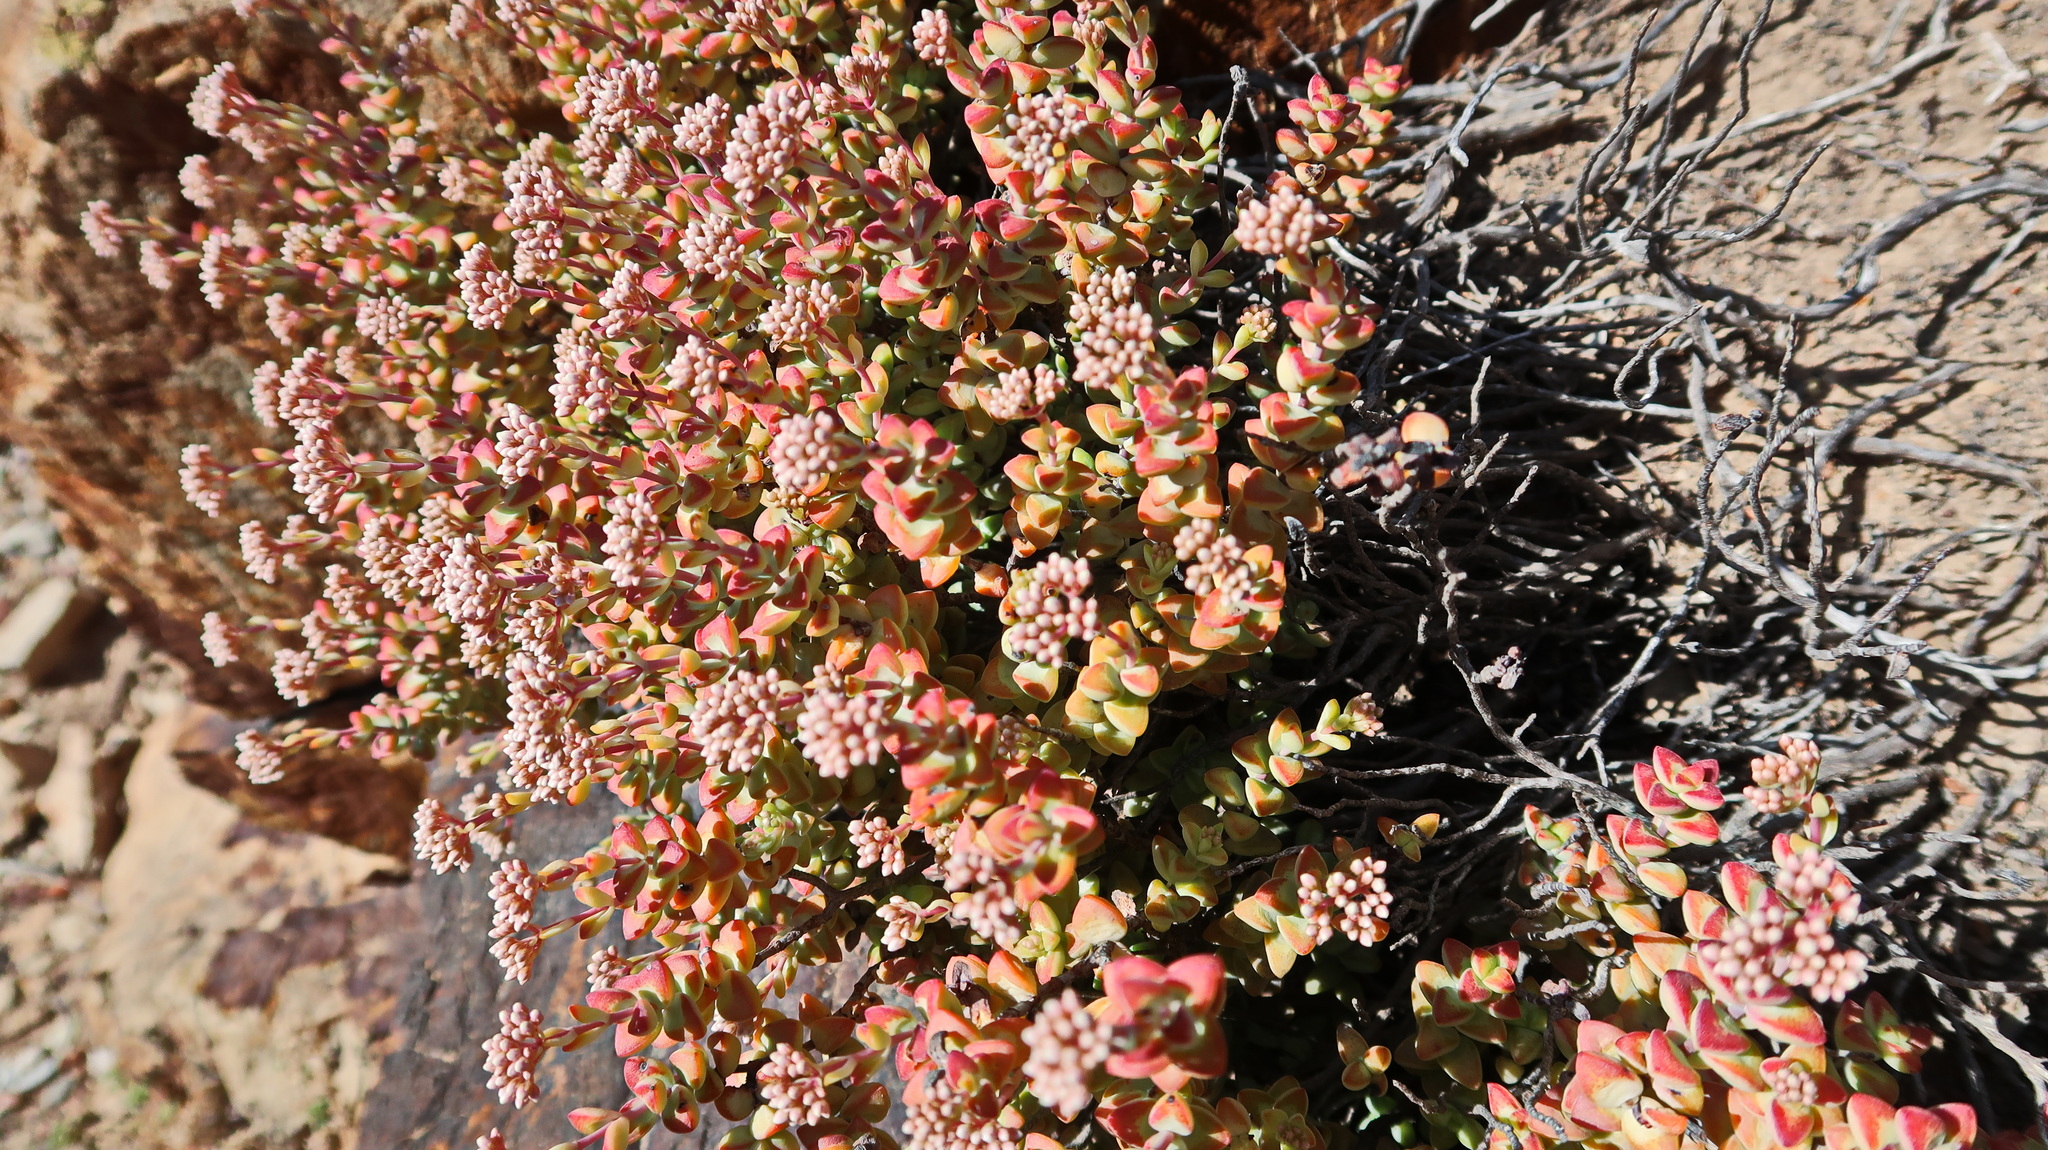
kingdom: Plantae
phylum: Tracheophyta
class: Magnoliopsida
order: Saxifragales
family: Crassulaceae
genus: Crassula
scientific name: Crassula rupestris
